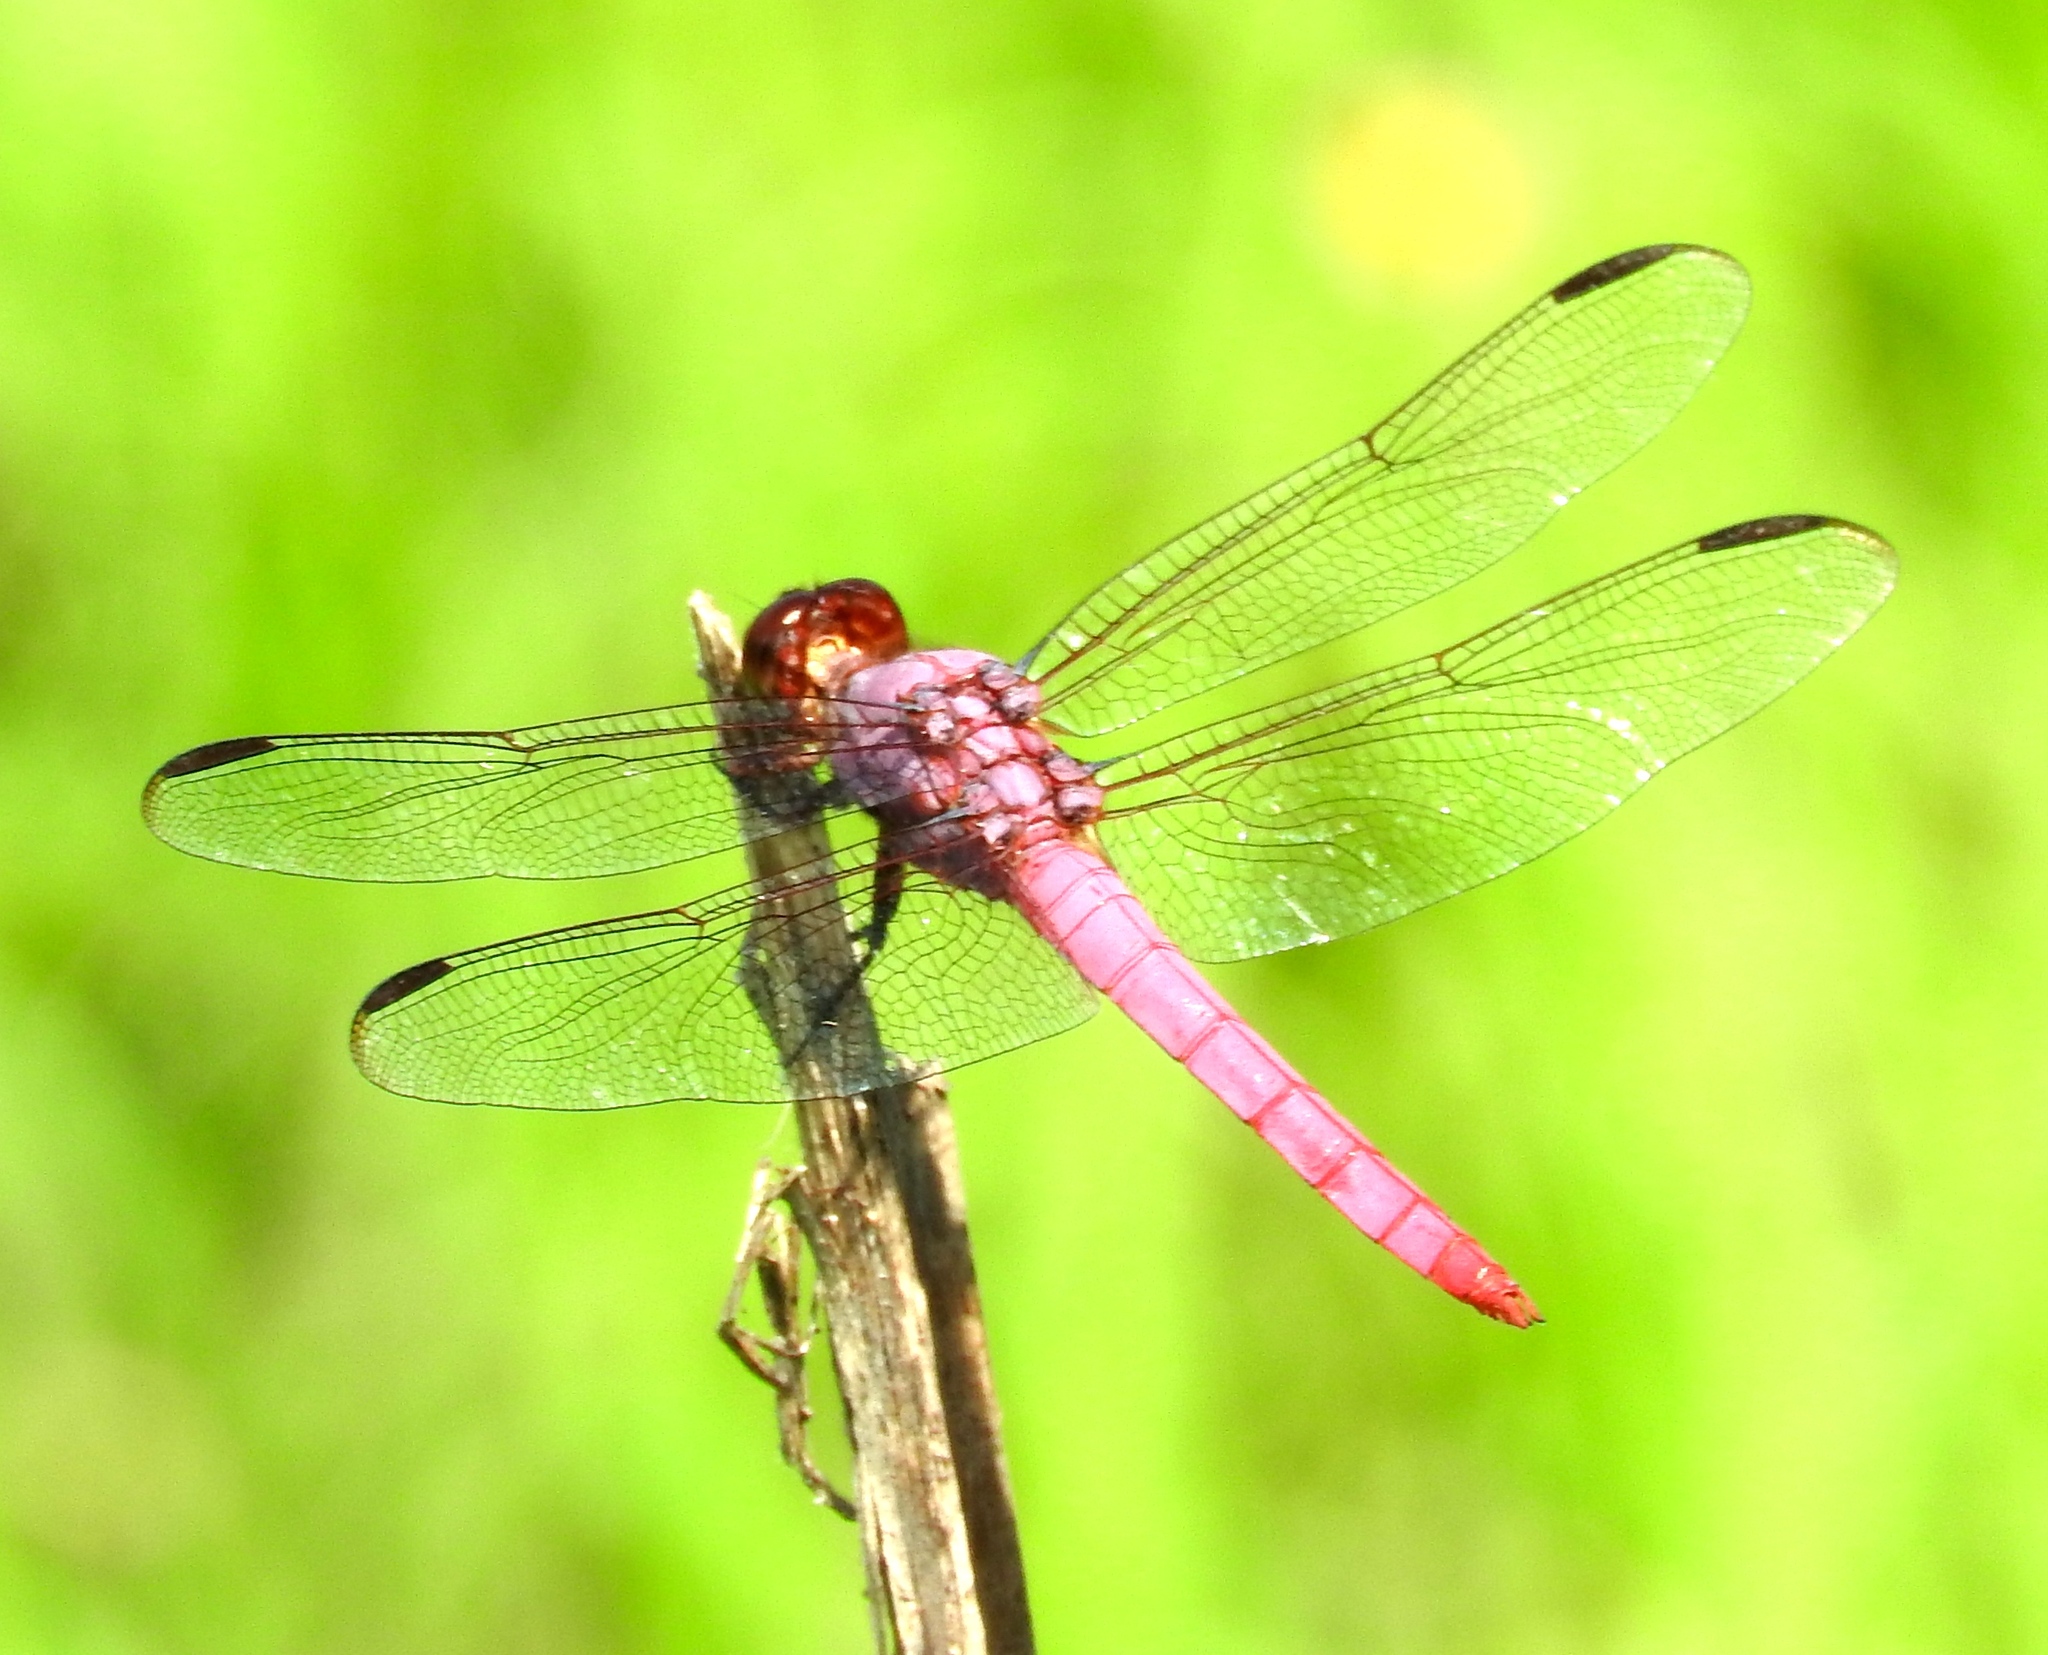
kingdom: Animalia
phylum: Arthropoda
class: Insecta
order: Odonata
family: Libellulidae
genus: Orthemis
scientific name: Orthemis ferruginea
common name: Roseate skimmer
